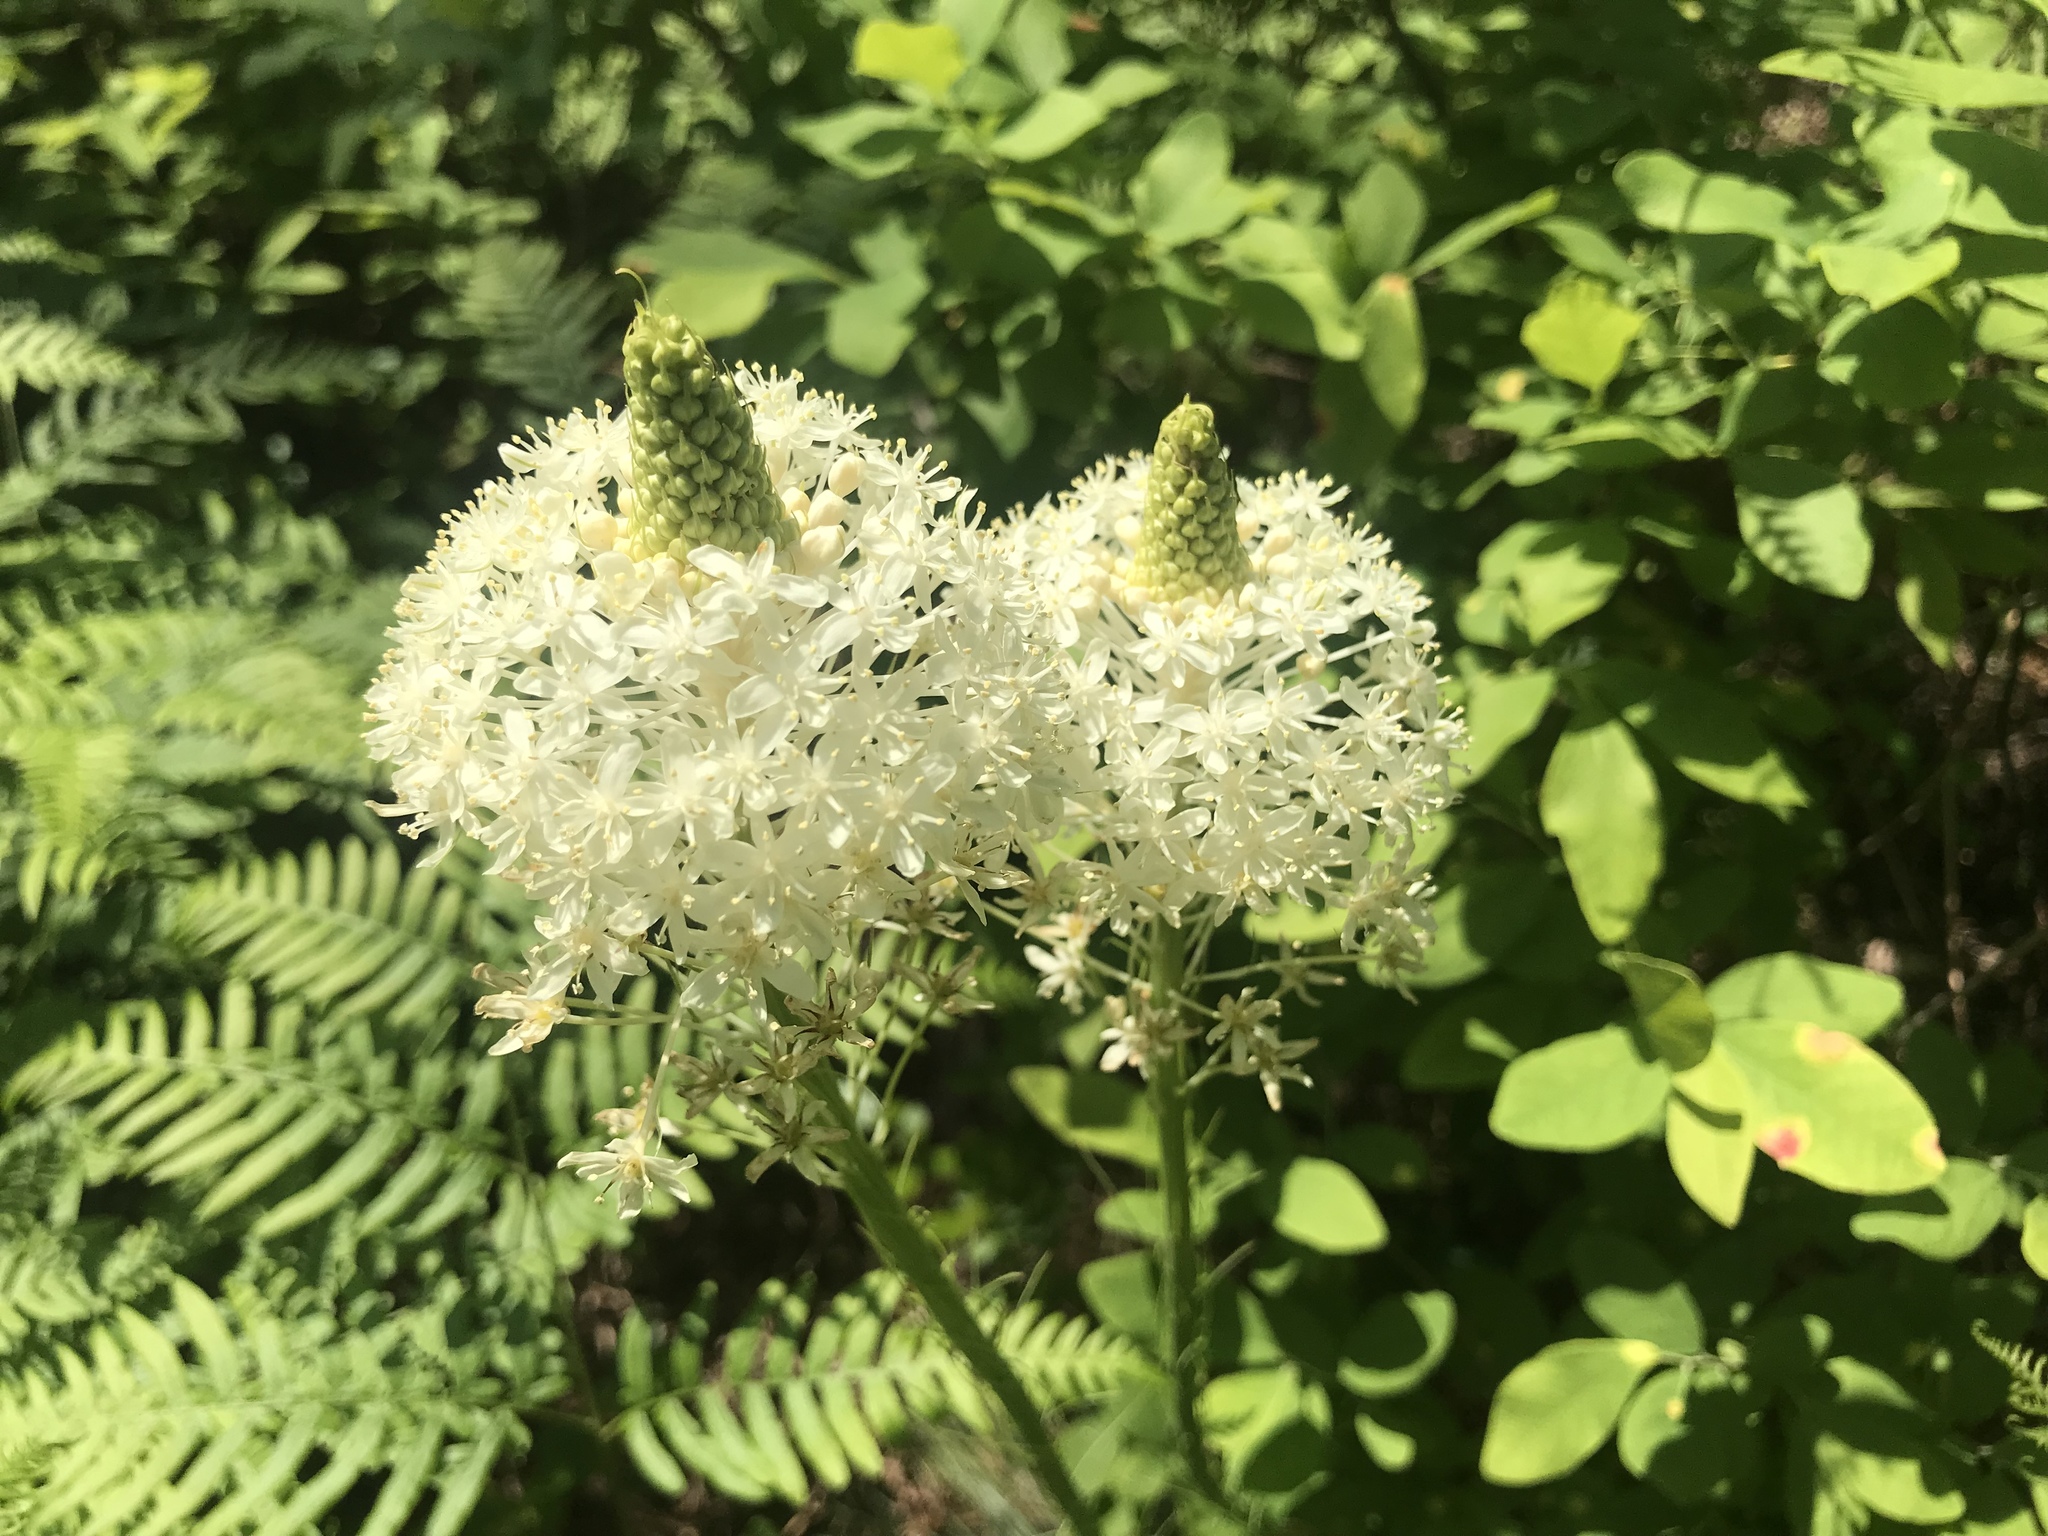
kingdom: Plantae
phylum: Tracheophyta
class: Liliopsida
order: Liliales
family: Melanthiaceae
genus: Xerophyllum
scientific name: Xerophyllum asphodeloides
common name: Mountain-asphodel
